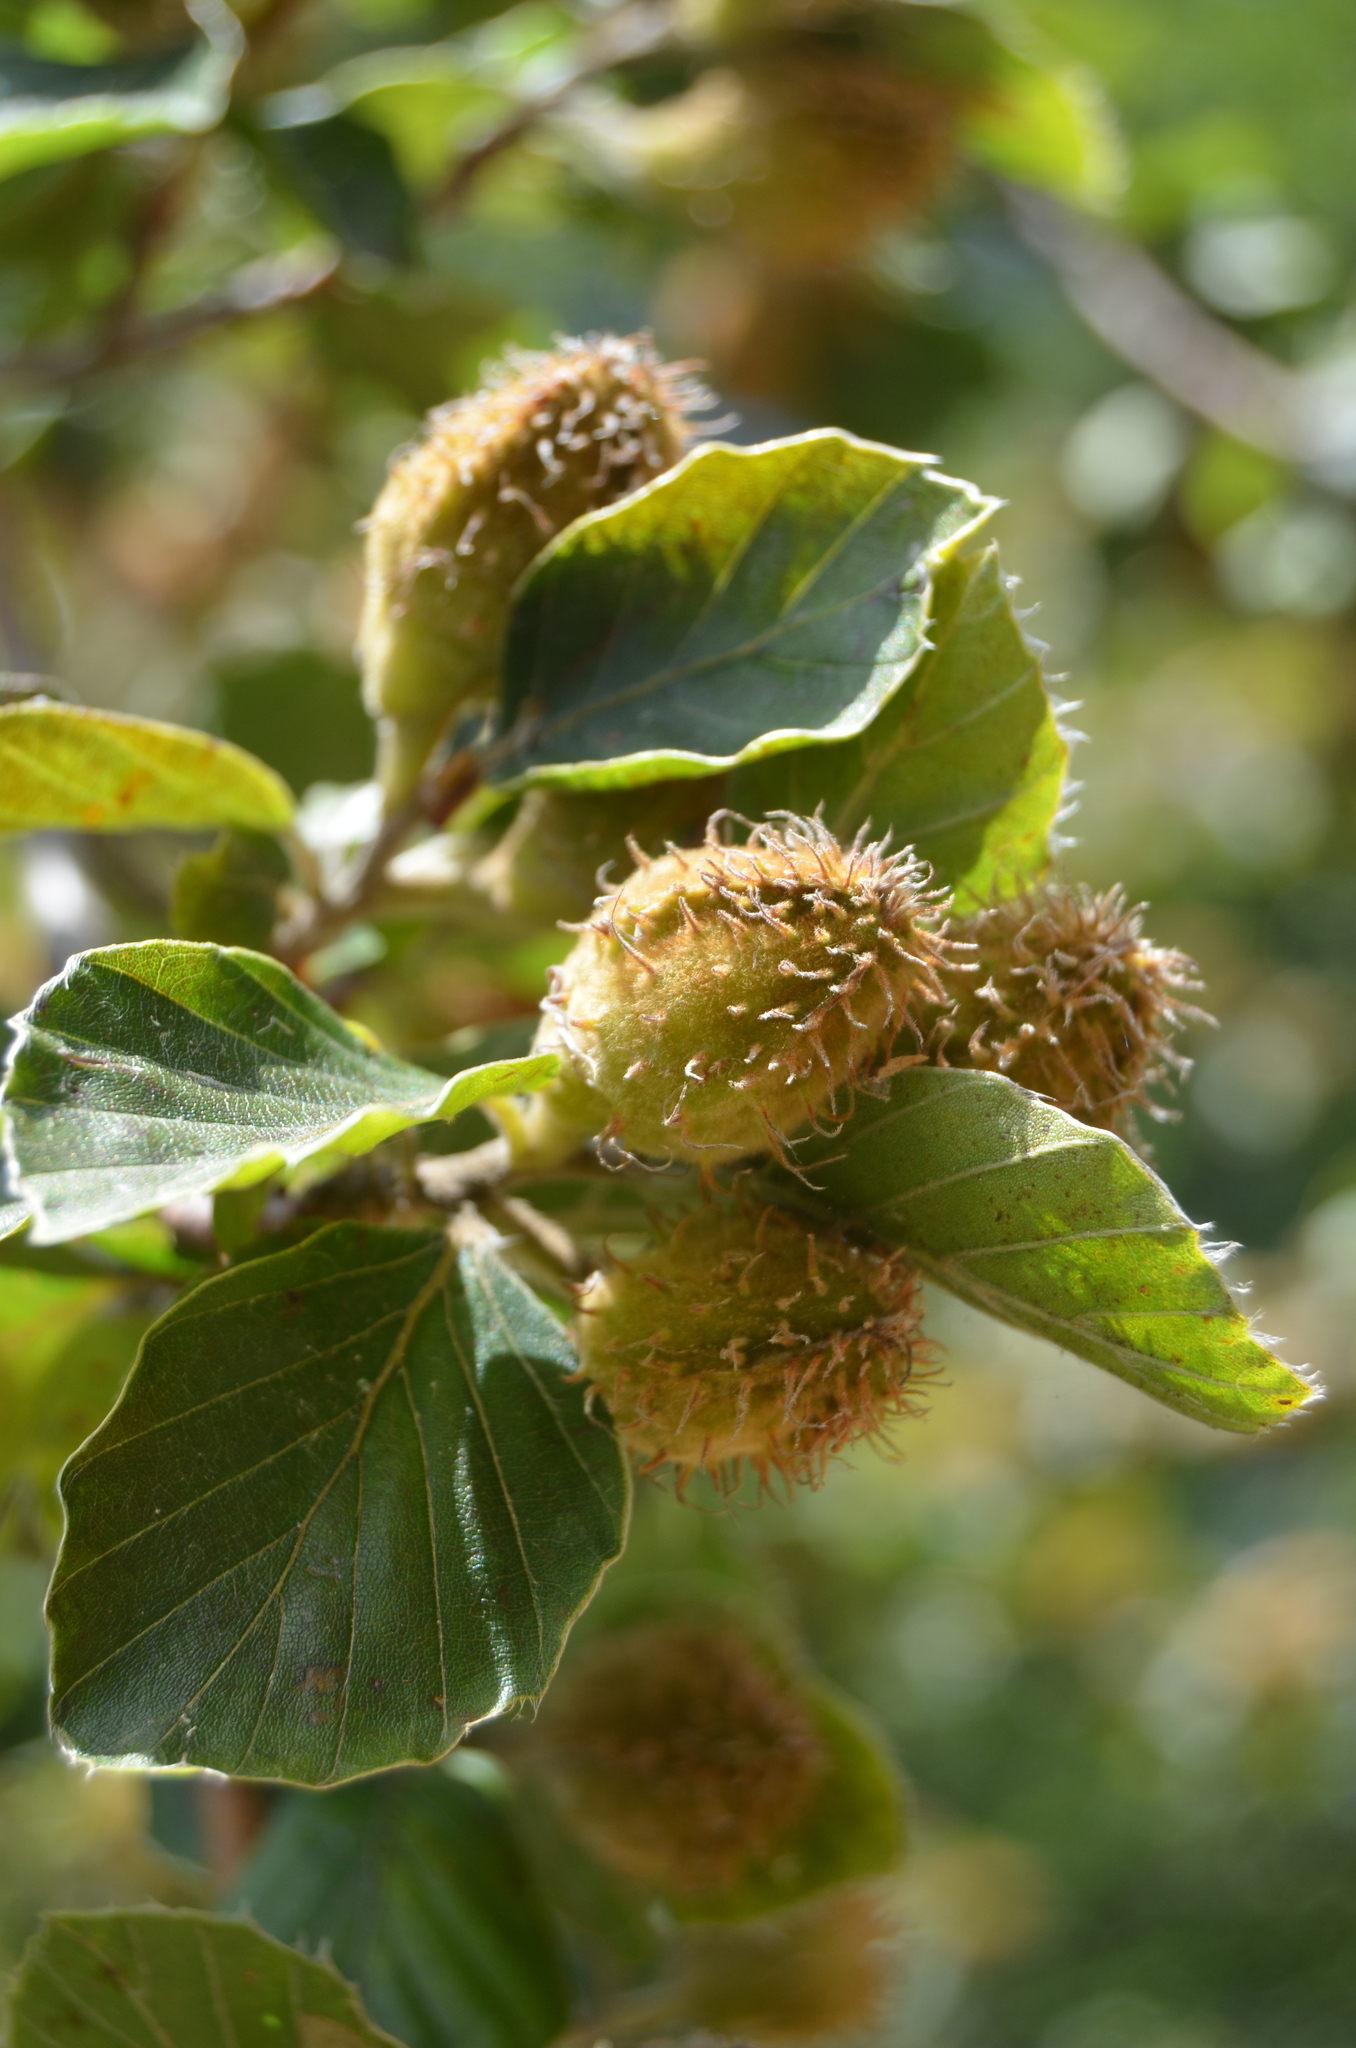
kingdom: Plantae
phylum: Tracheophyta
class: Magnoliopsida
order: Fagales
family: Fagaceae
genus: Fagus
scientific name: Fagus sylvatica
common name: Beech
